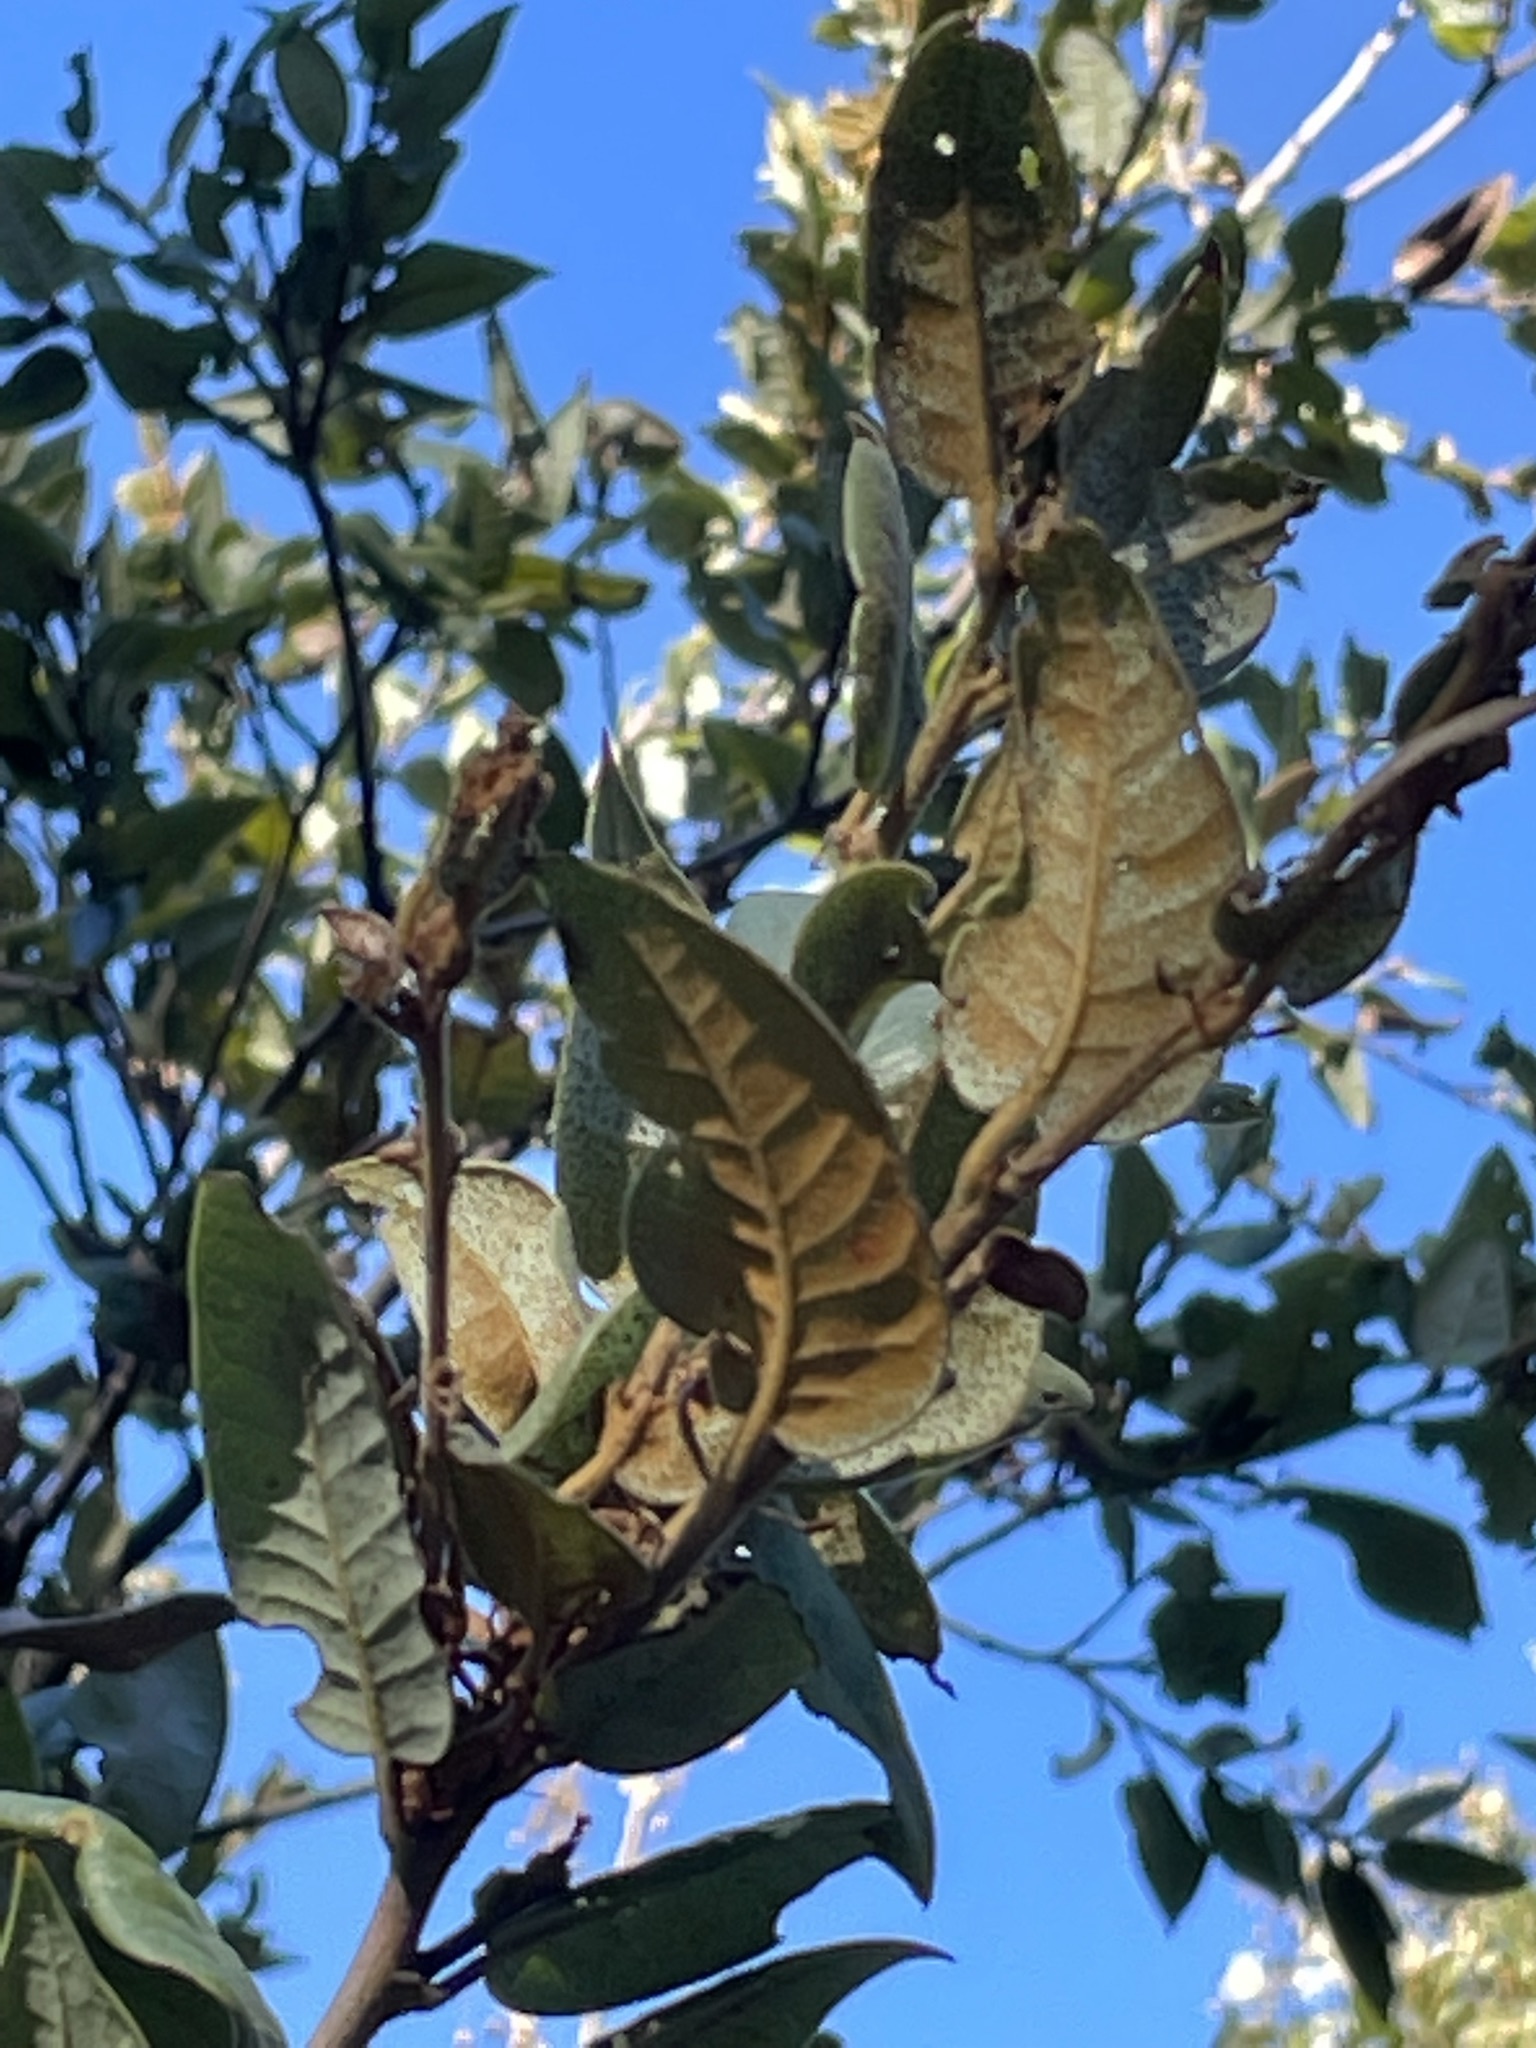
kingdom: Plantae
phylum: Tracheophyta
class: Magnoliopsida
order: Fagales
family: Fagaceae
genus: Quercus
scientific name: Quercus chrysolepis
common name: Canyon live oak
